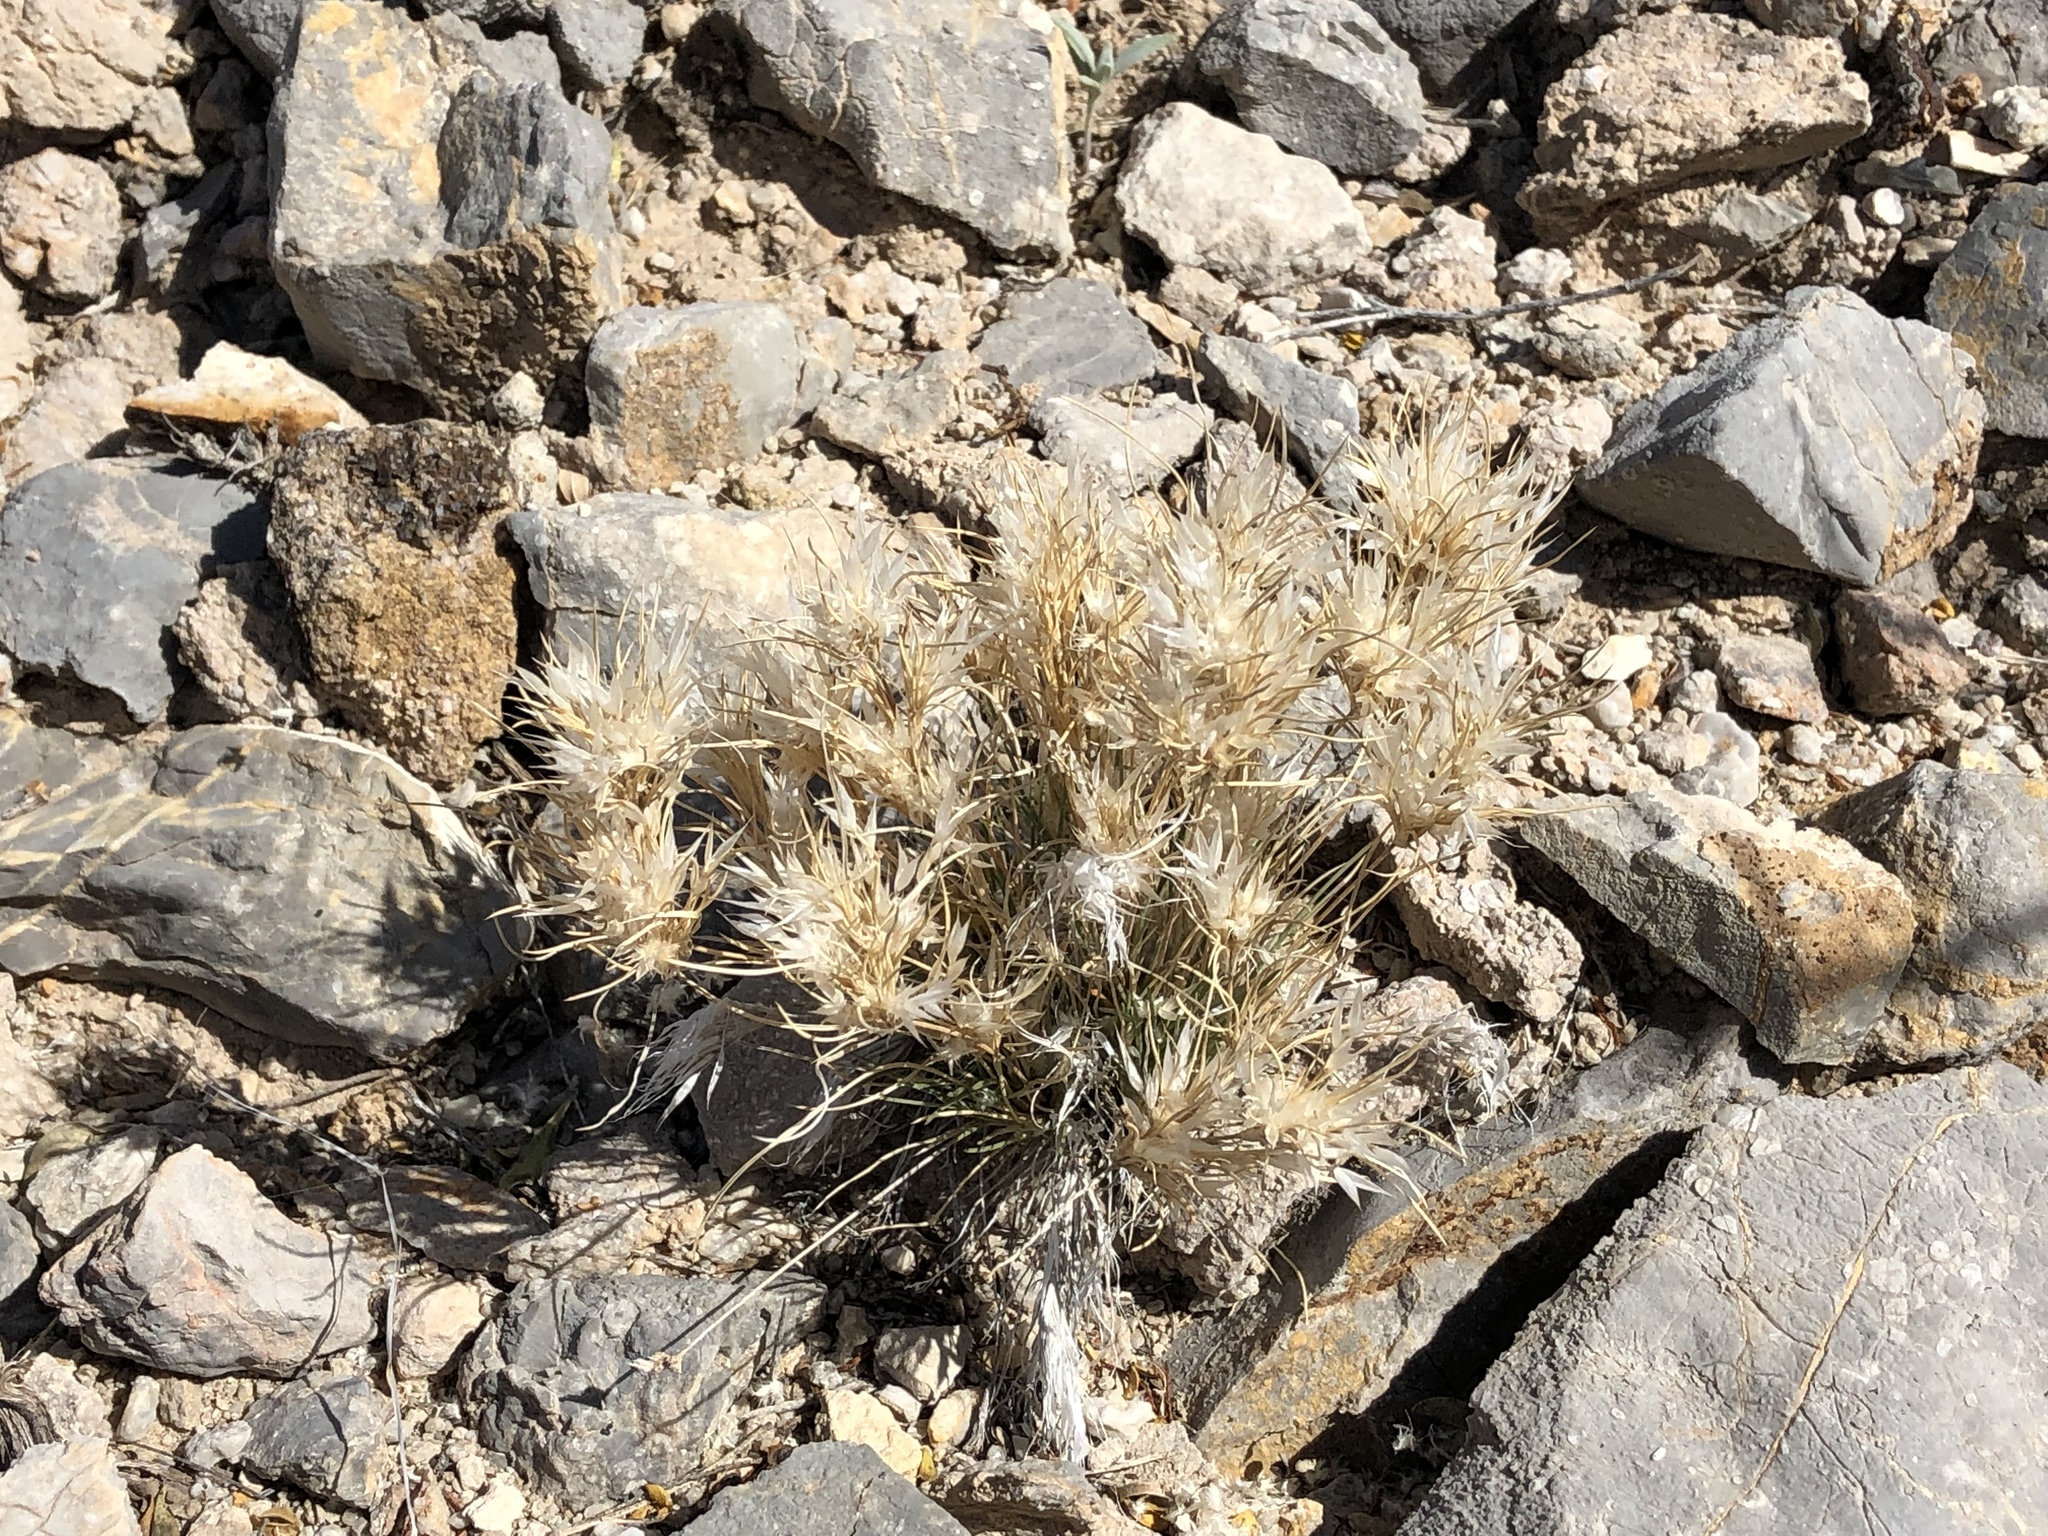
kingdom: Plantae
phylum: Tracheophyta
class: Liliopsida
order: Poales
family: Poaceae
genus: Dasyochloa
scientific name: Dasyochloa pulchella
